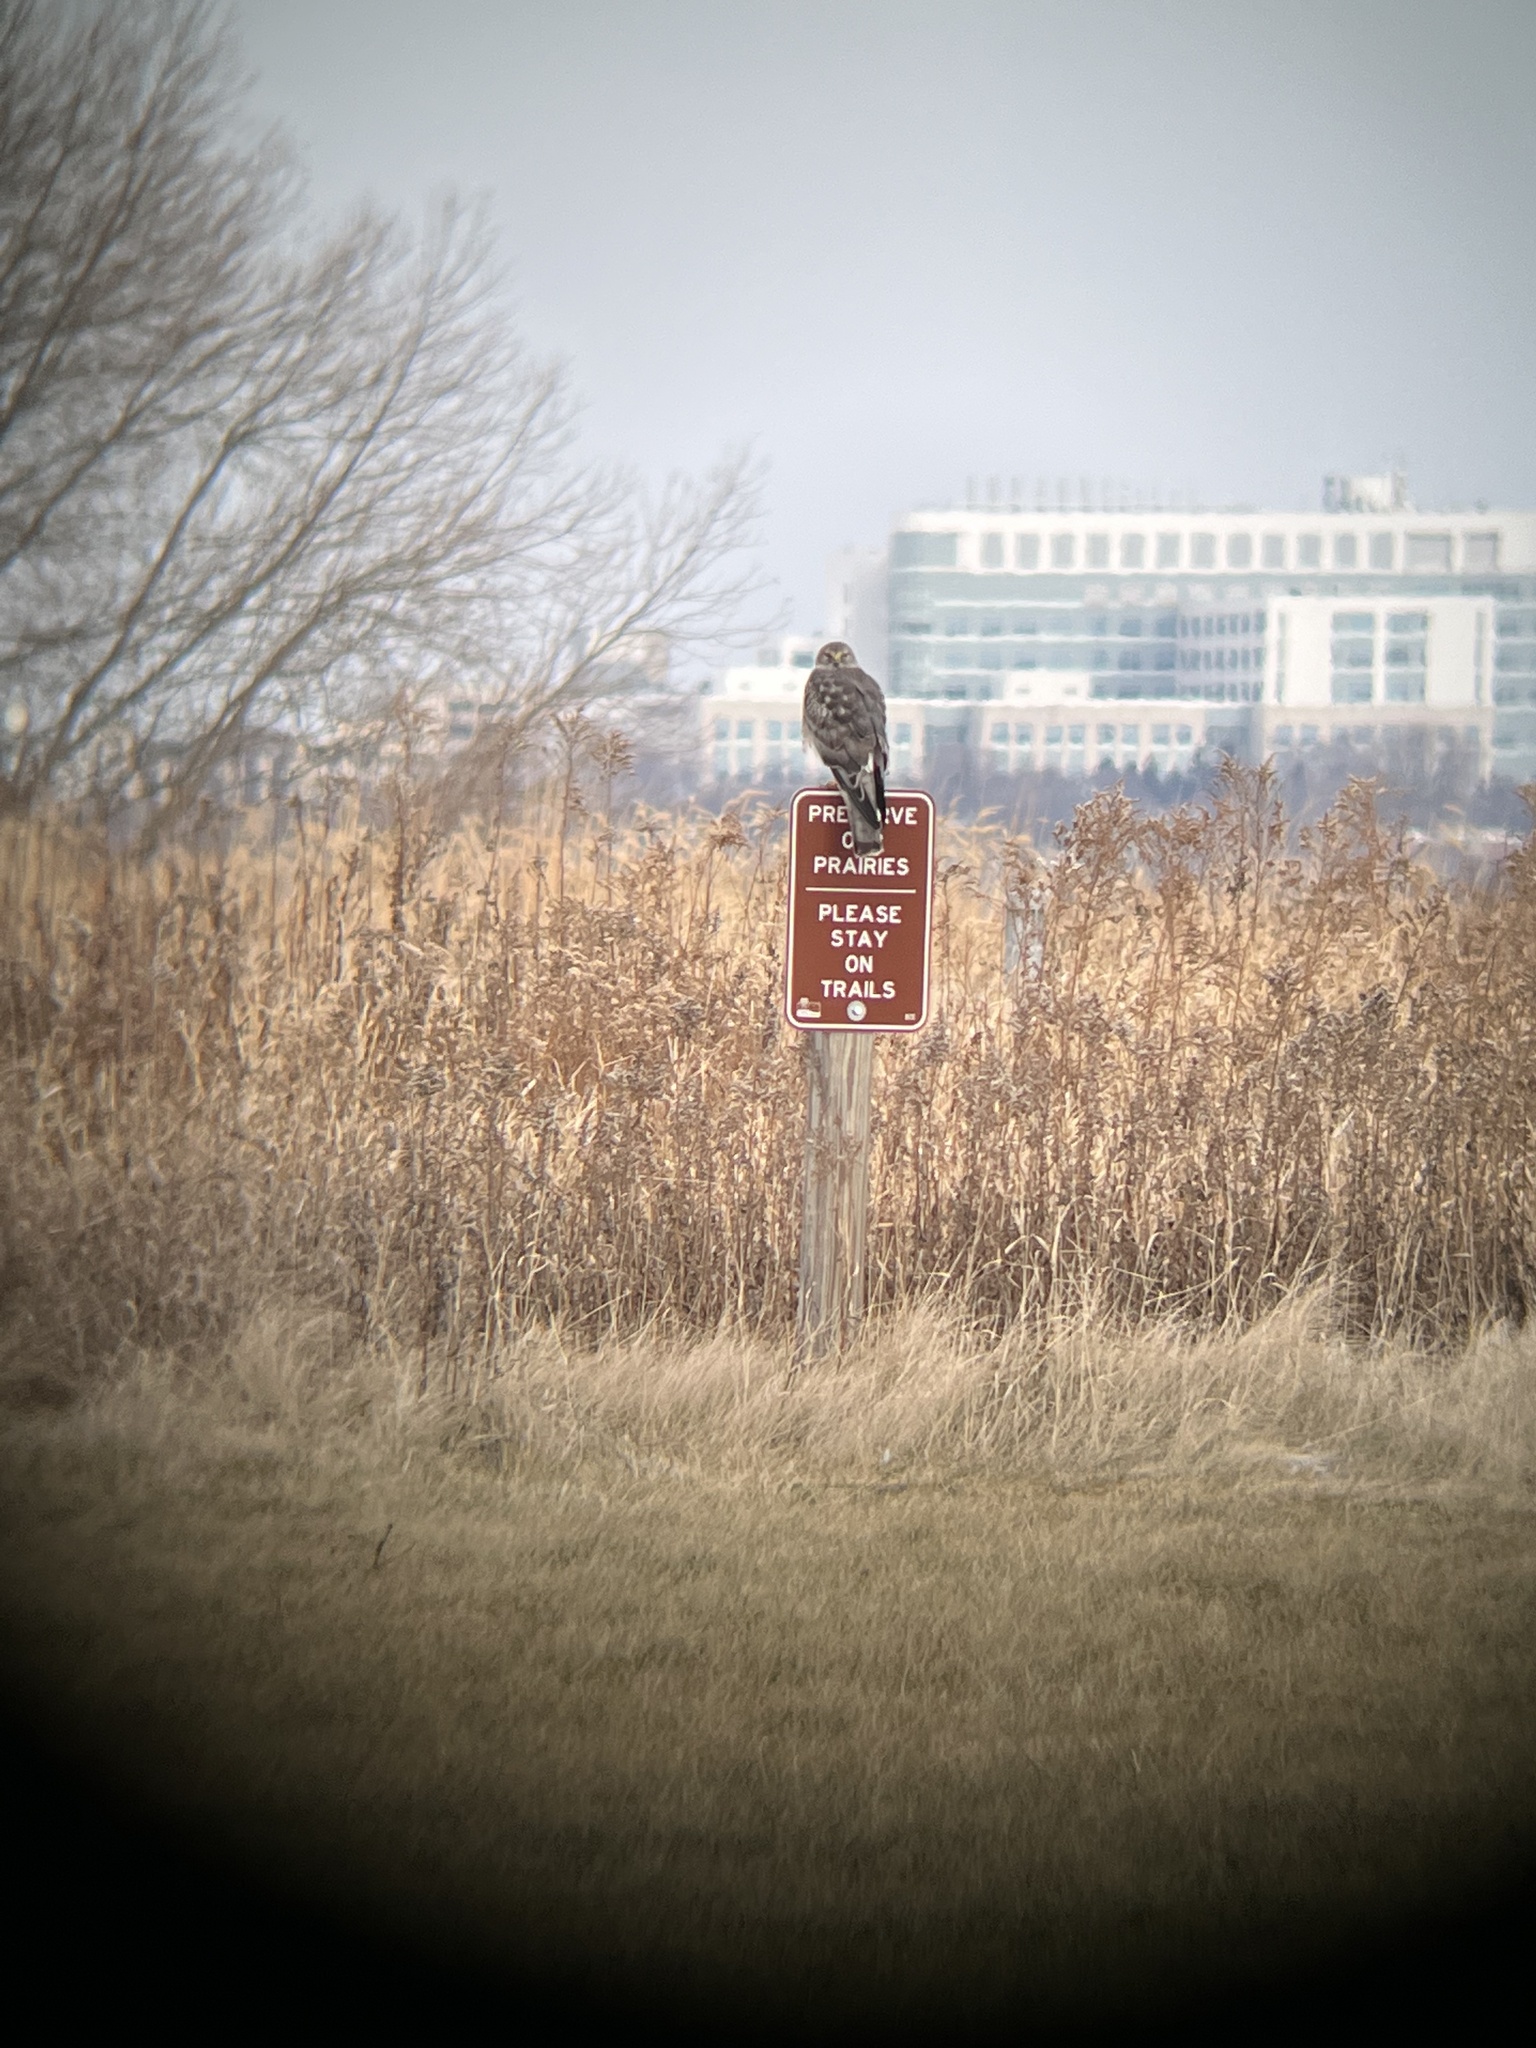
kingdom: Animalia
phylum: Chordata
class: Aves
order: Accipitriformes
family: Accipitridae
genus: Circus
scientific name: Circus cyaneus
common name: Hen harrier
